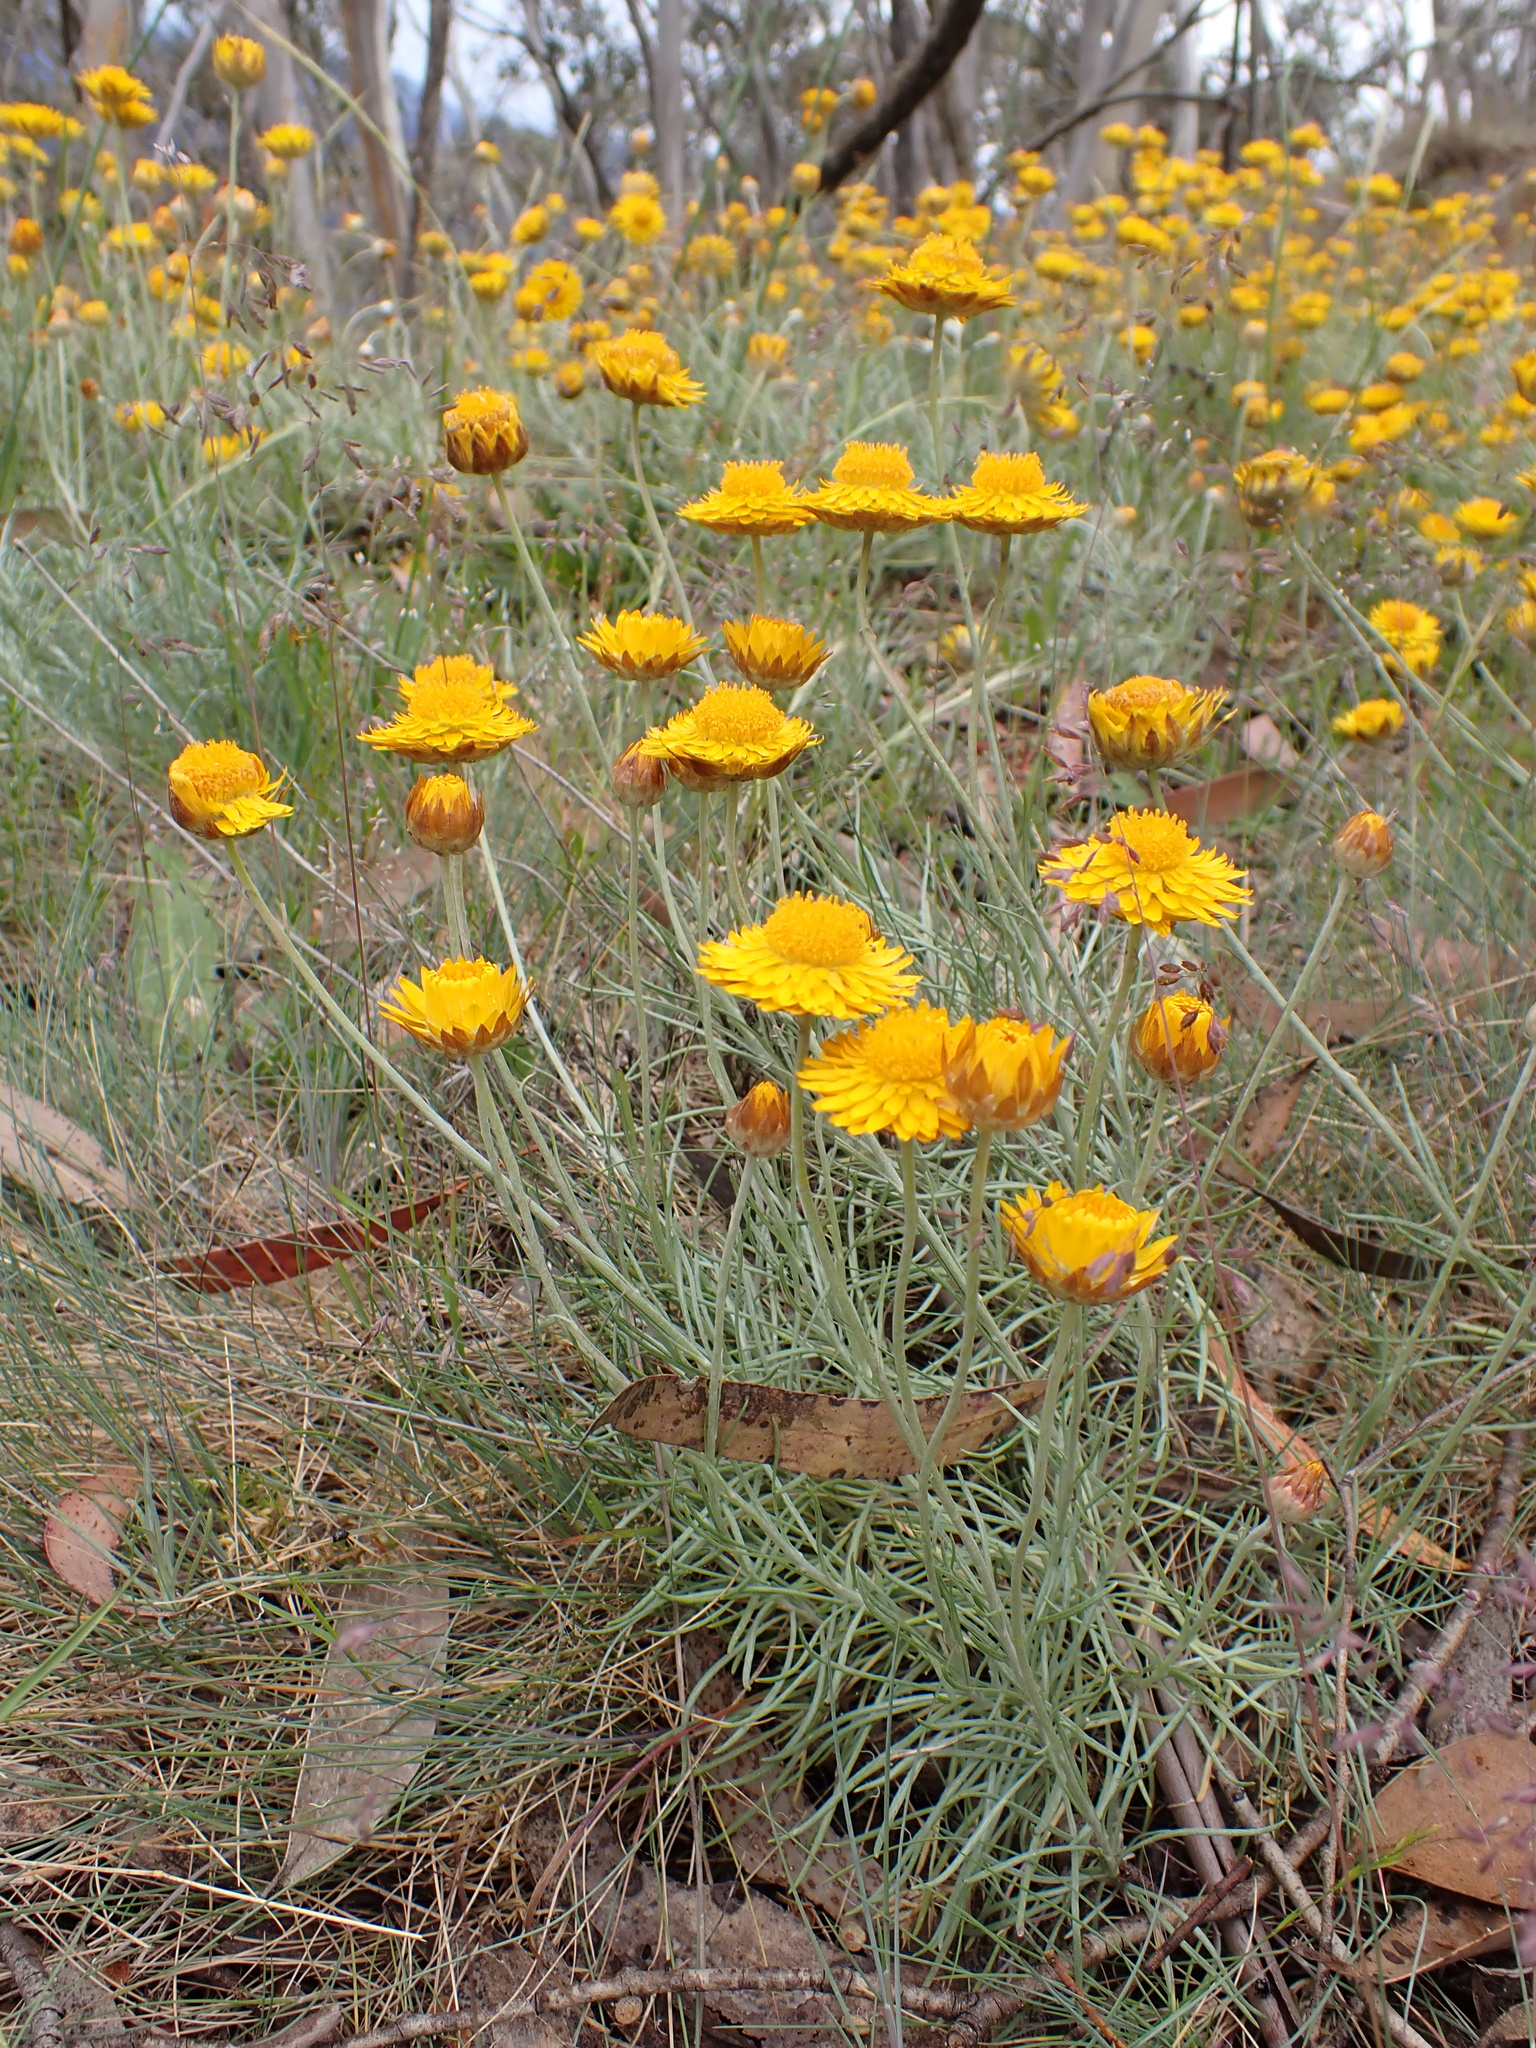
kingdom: Plantae
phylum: Tracheophyta
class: Magnoliopsida
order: Asterales
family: Asteraceae
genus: Leucochrysum
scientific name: Leucochrysum albicans
